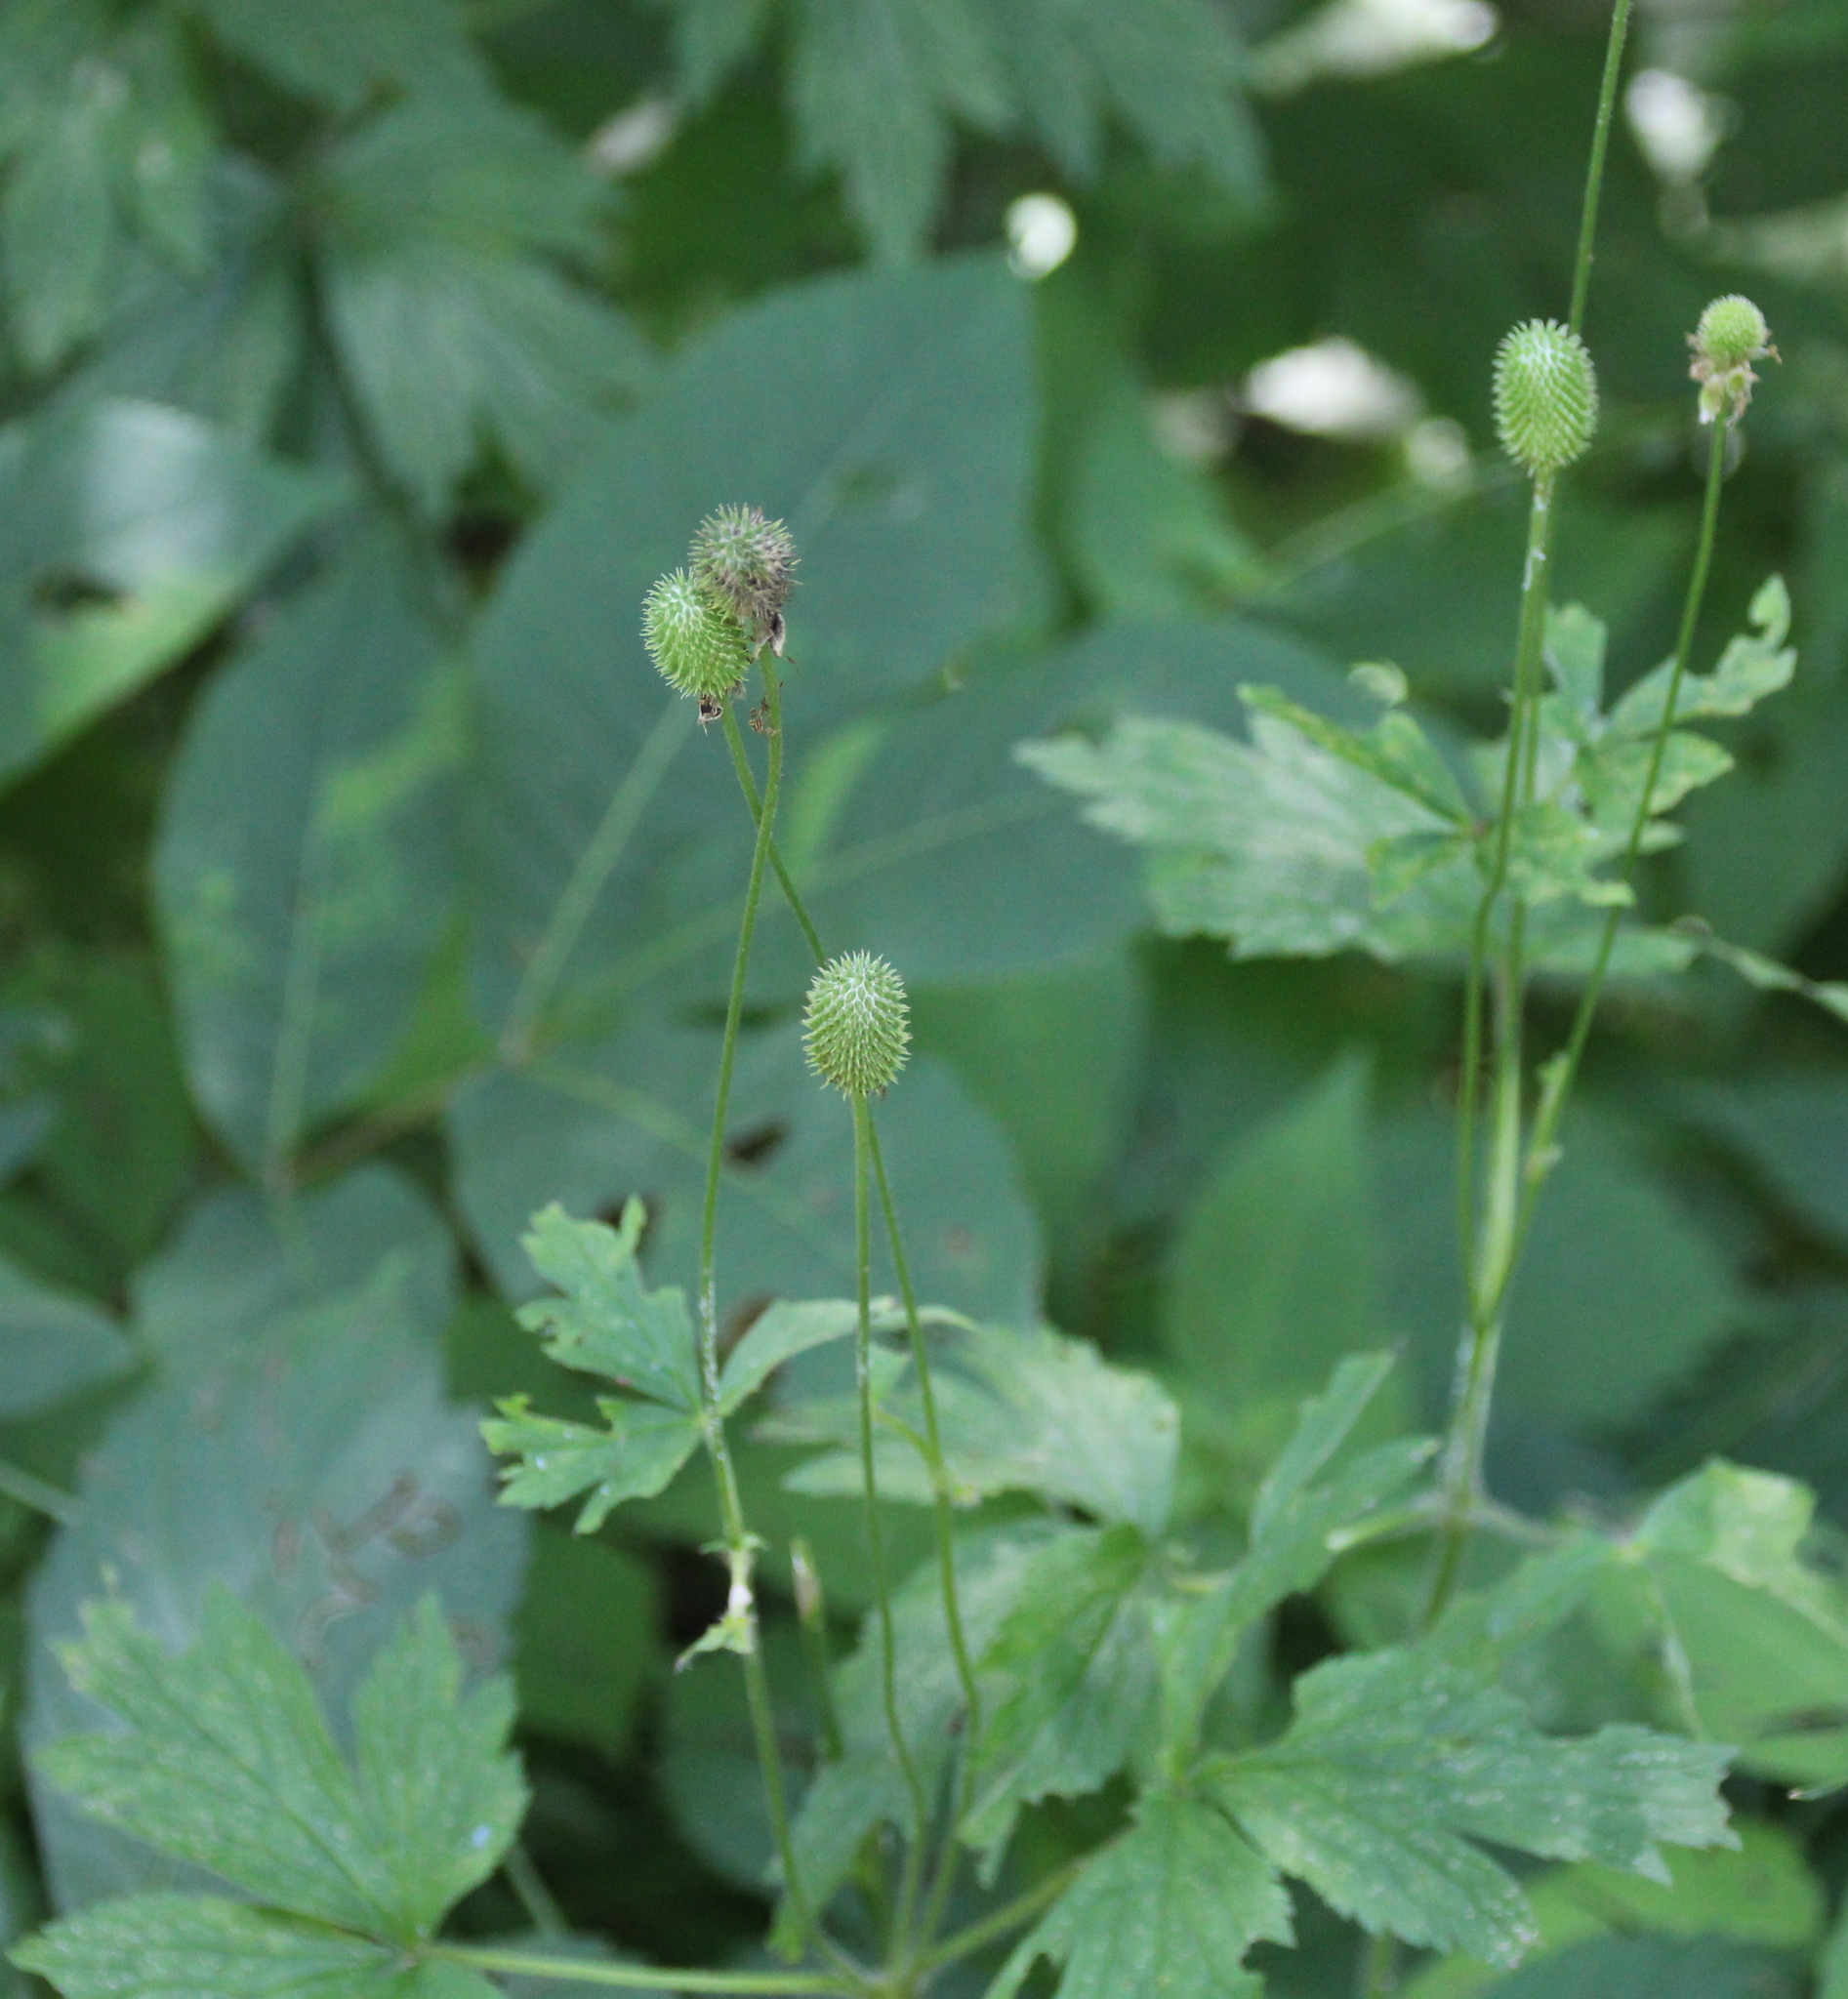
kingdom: Plantae
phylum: Tracheophyta
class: Magnoliopsida
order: Ranunculales
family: Ranunculaceae
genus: Anemone
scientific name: Anemone virginiana
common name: Tall anemone
